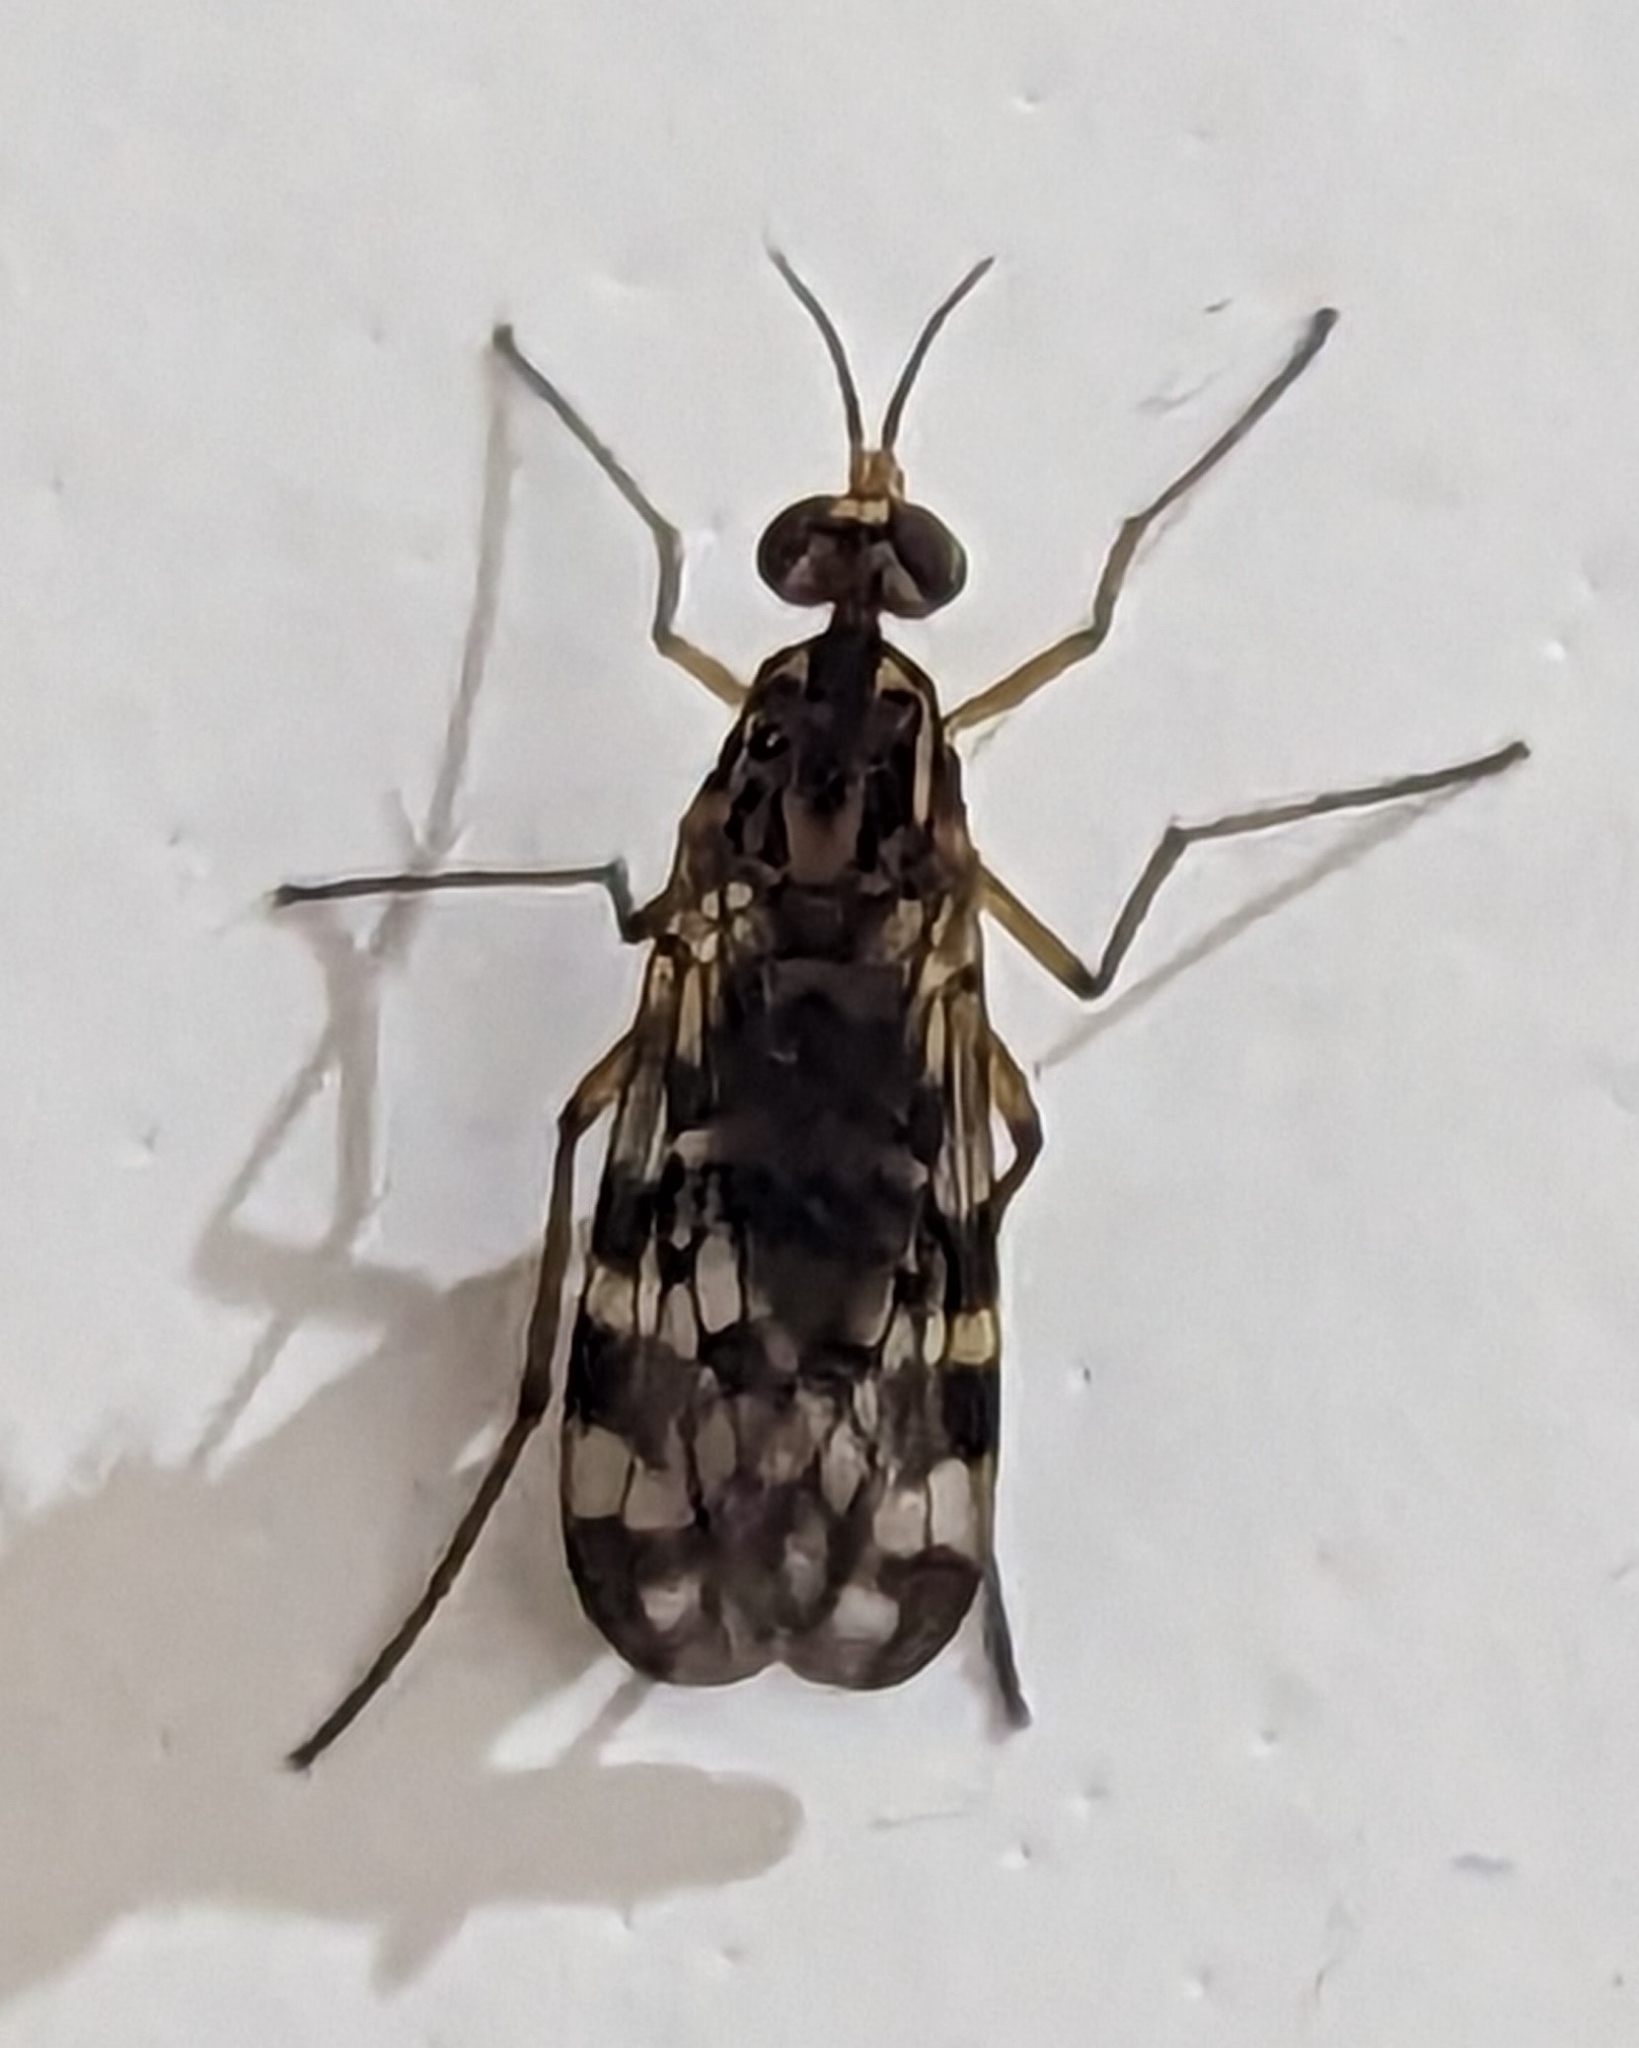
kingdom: Animalia
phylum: Arthropoda
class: Insecta
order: Diptera
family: Anisopodidae
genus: Sylvicola
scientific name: Sylvicola dubius
